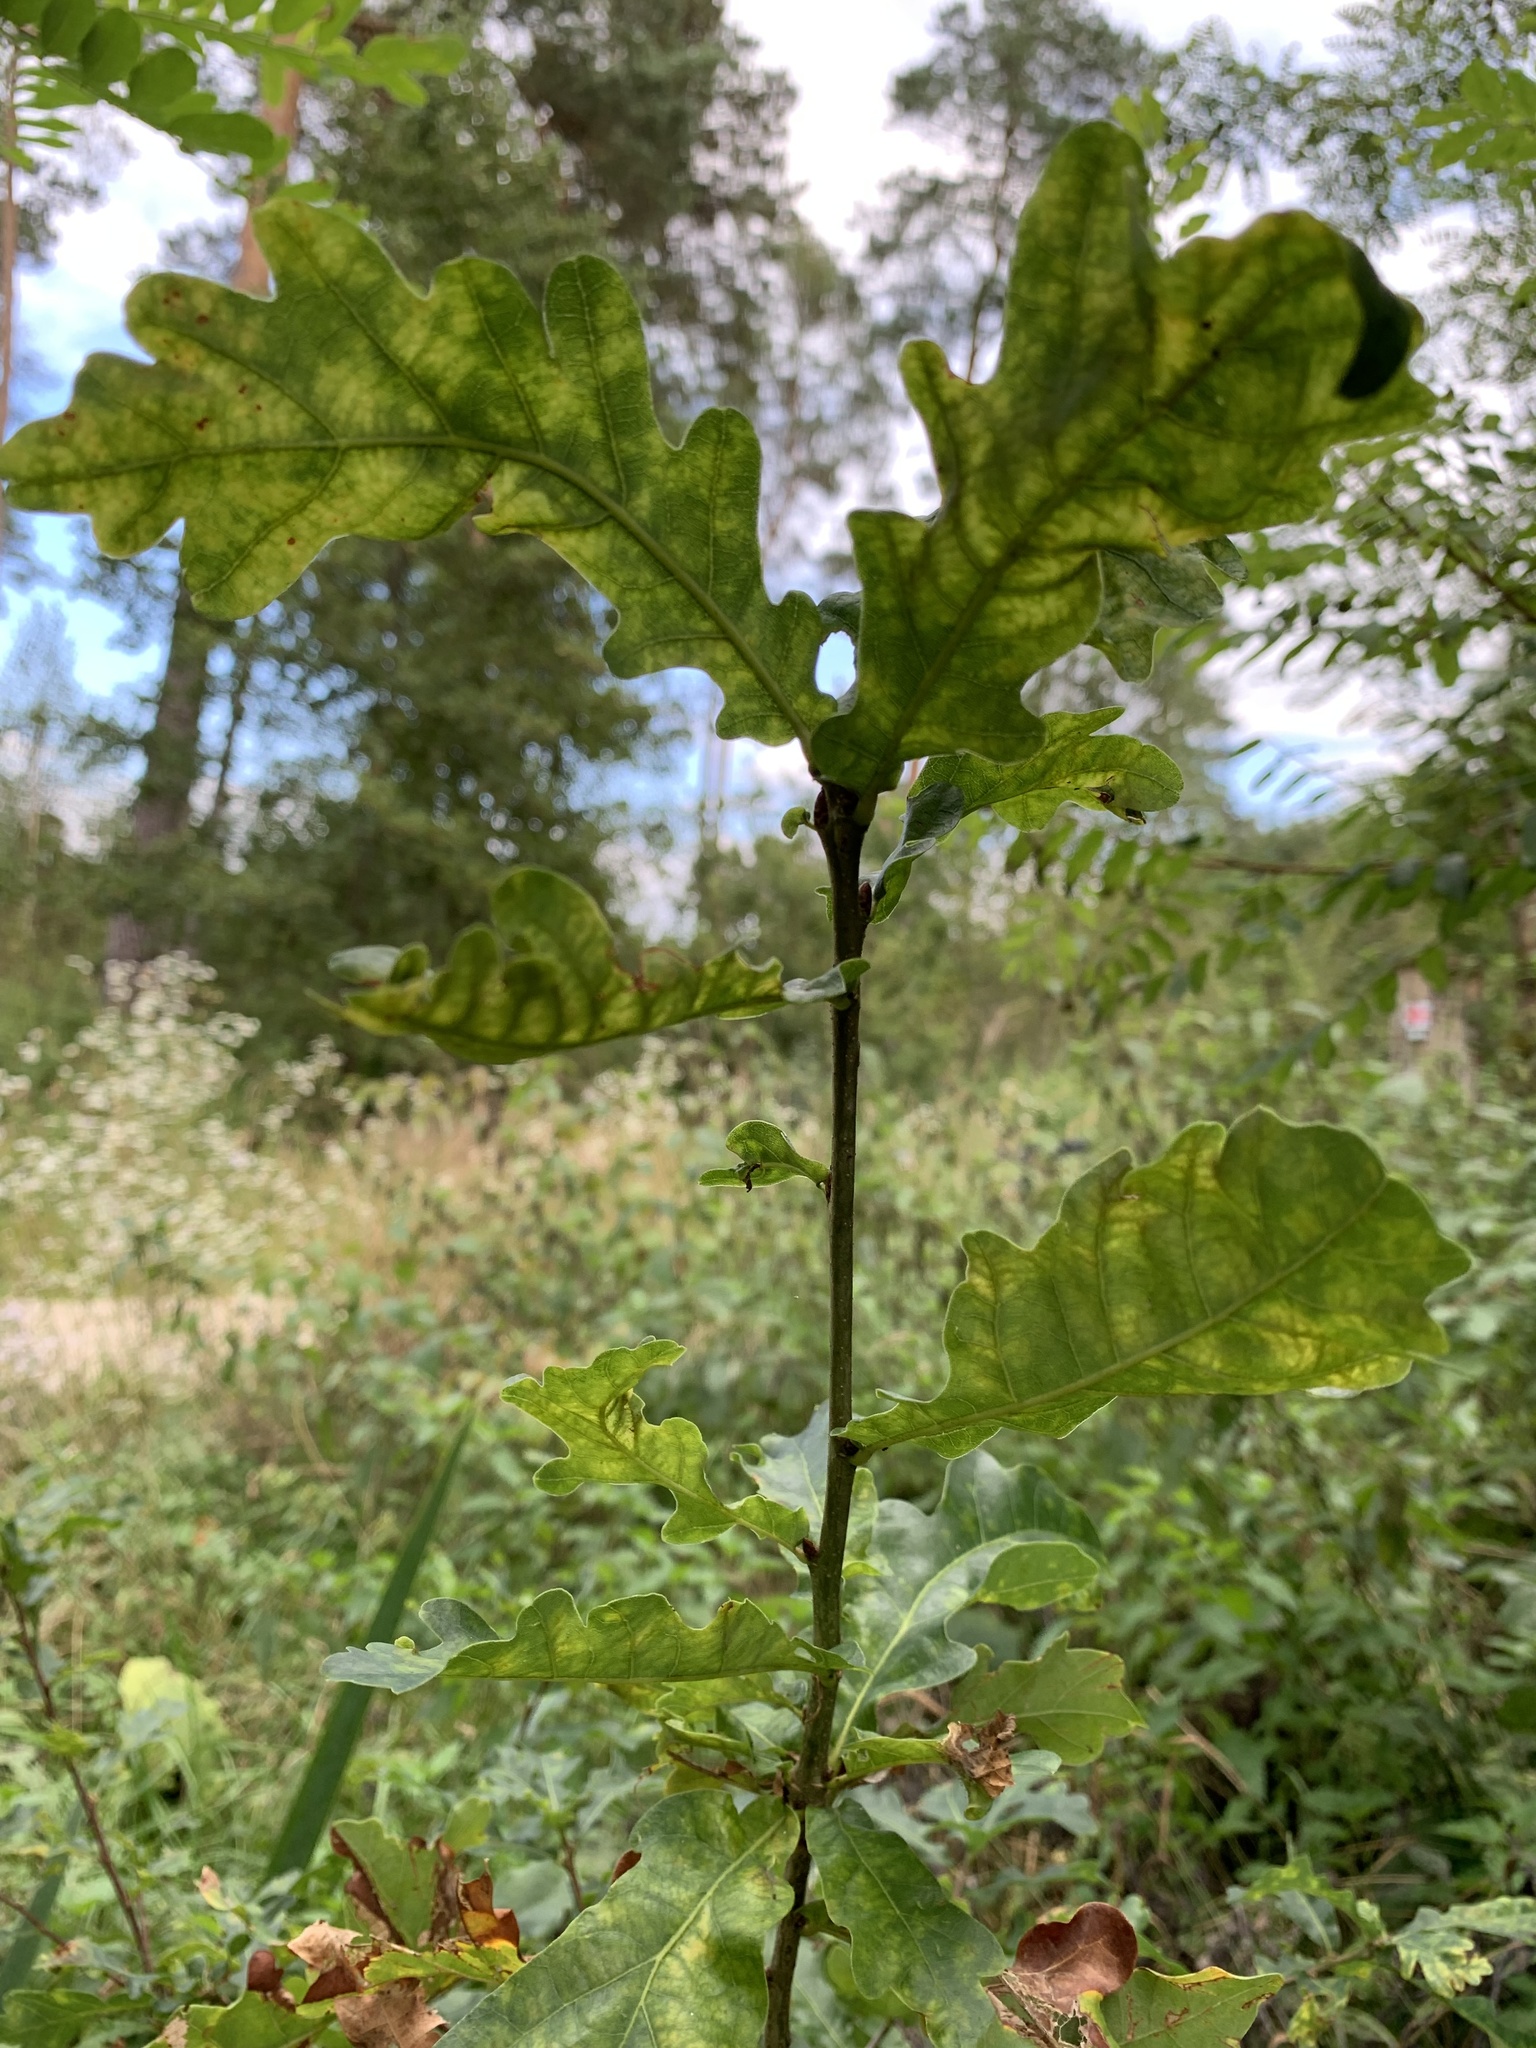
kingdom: Plantae
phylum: Tracheophyta
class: Magnoliopsida
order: Fagales
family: Fagaceae
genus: Quercus
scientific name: Quercus robur
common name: Pedunculate oak
